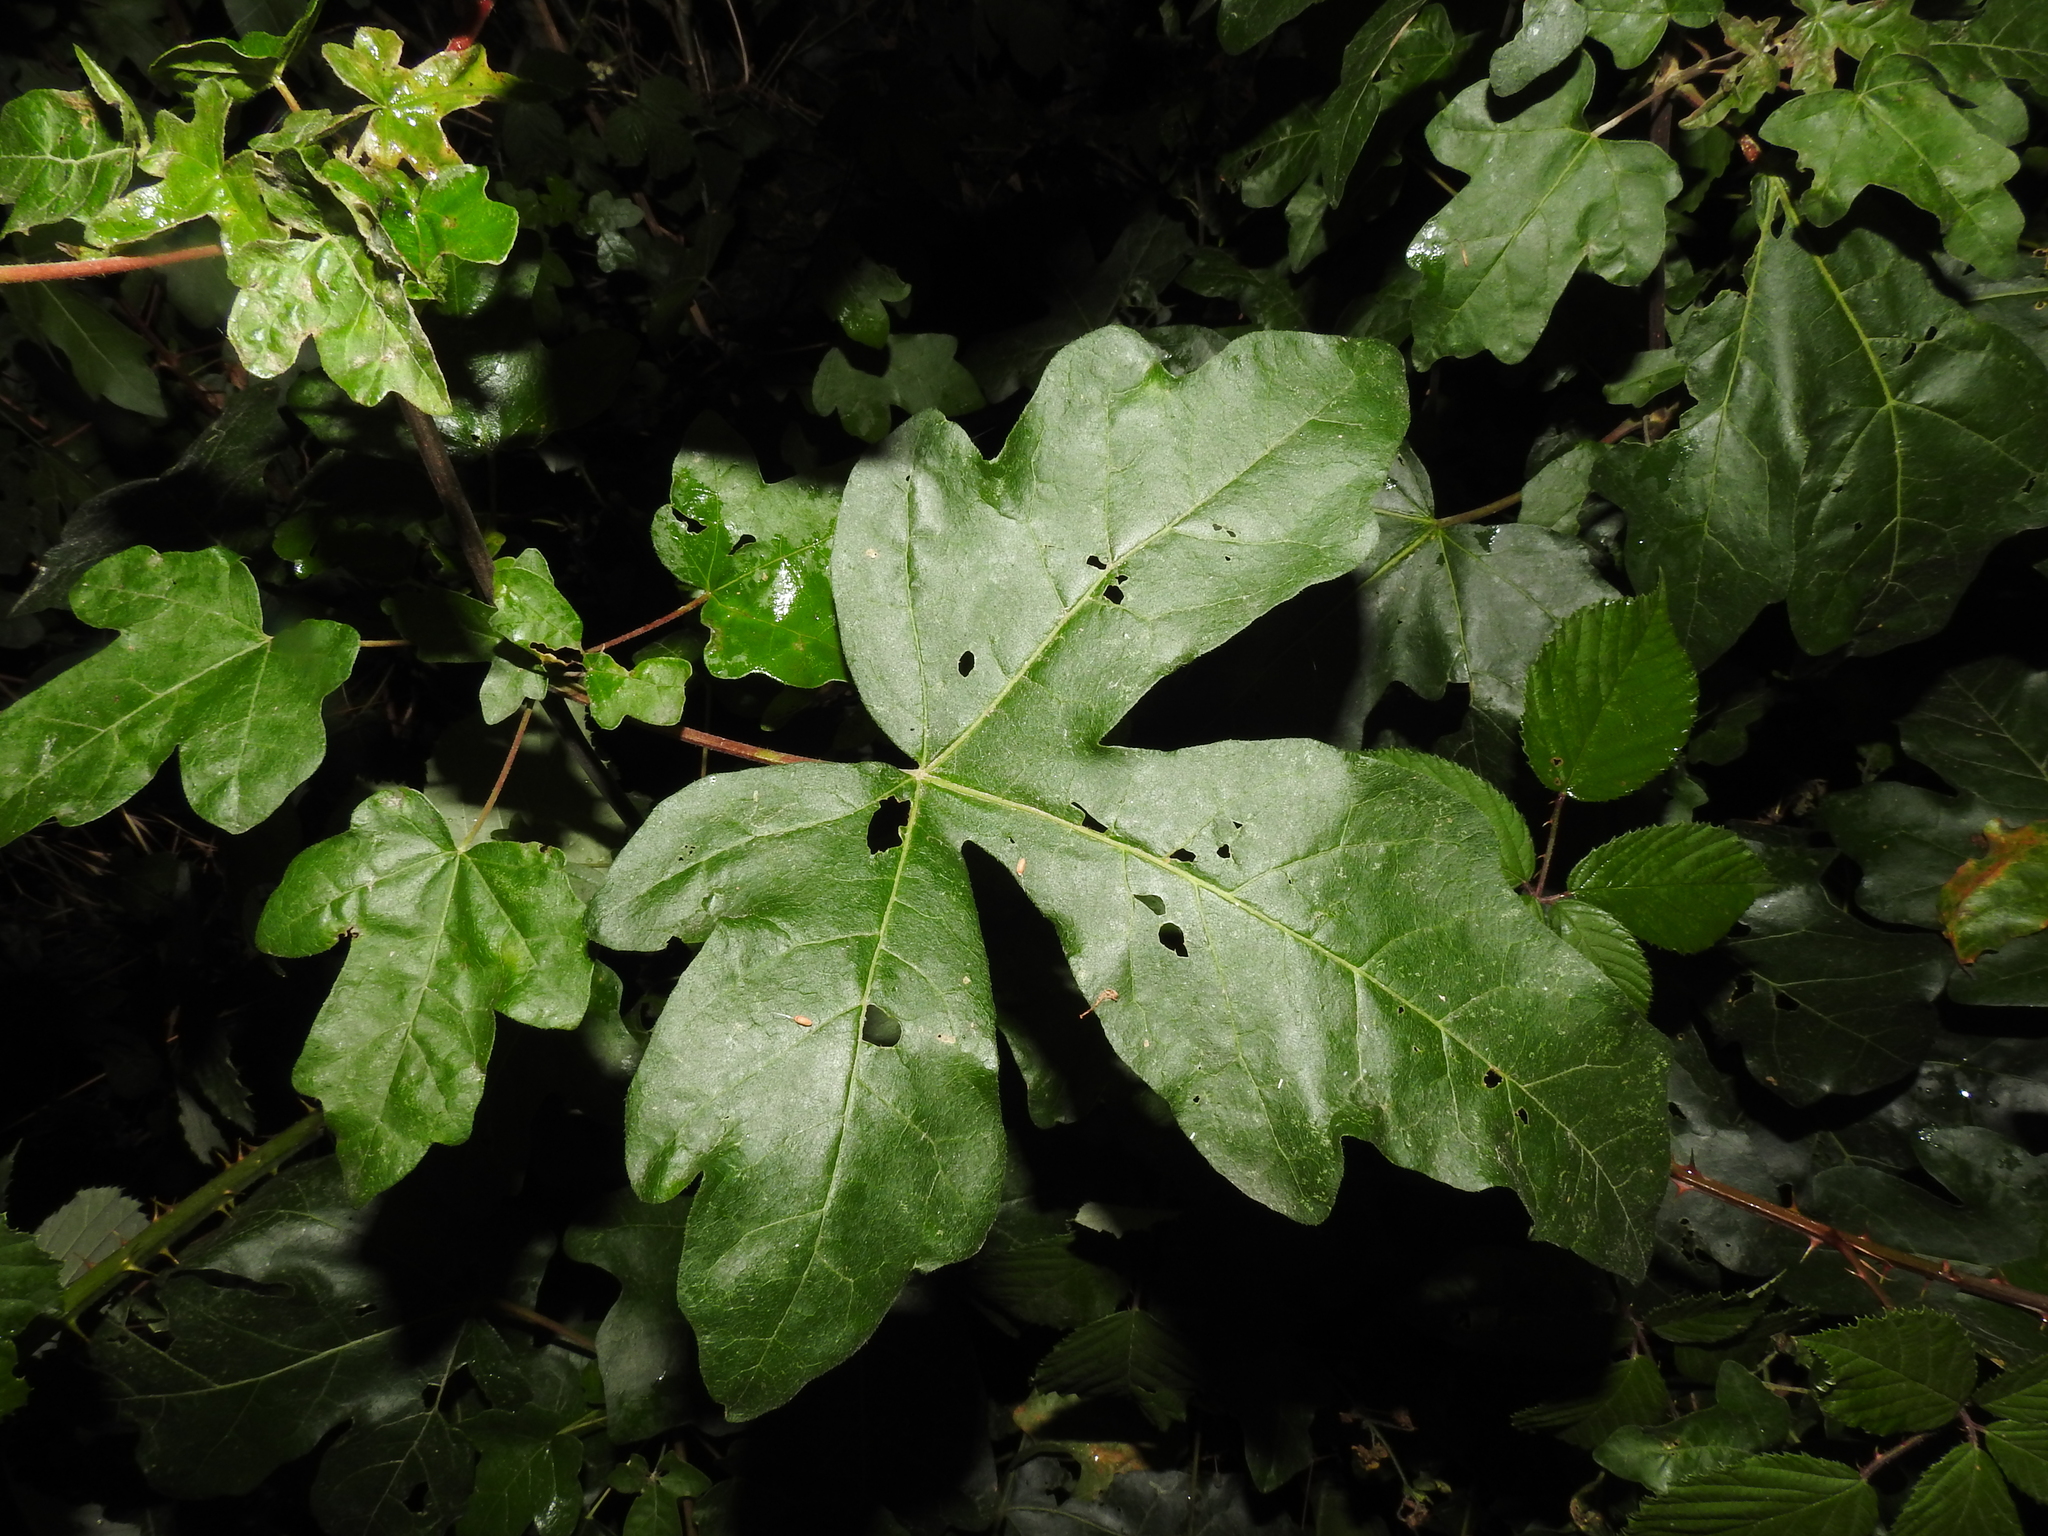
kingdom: Plantae
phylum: Tracheophyta
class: Magnoliopsida
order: Sapindales
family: Sapindaceae
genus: Acer
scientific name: Acer campestre
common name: Field maple
